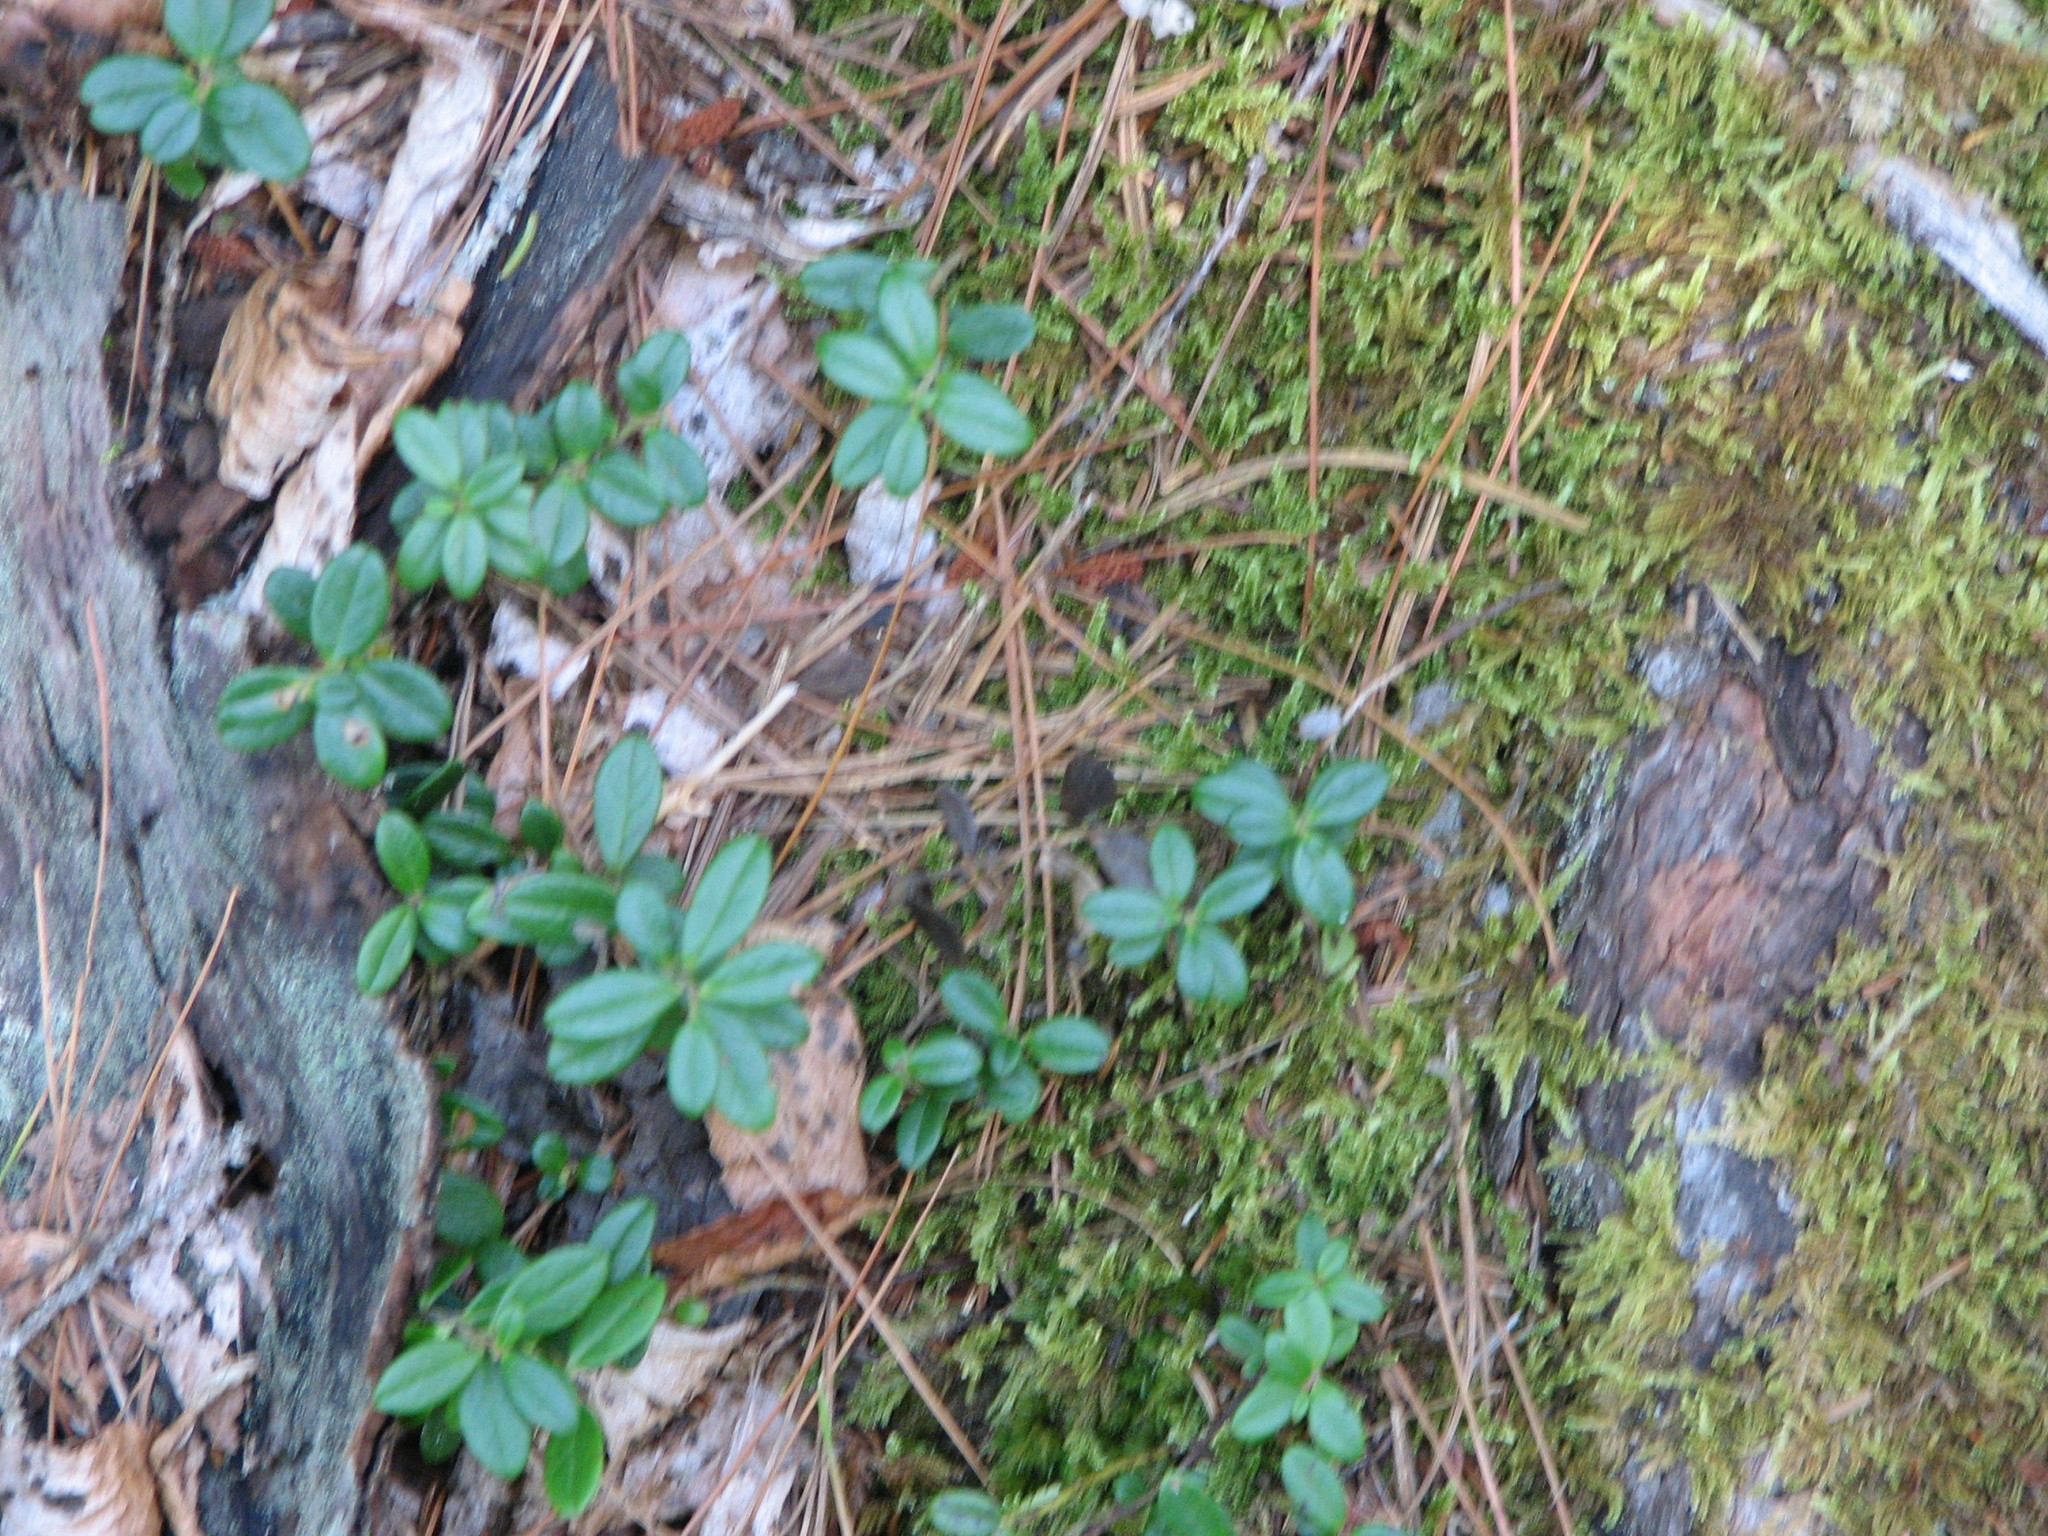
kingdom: Plantae
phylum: Tracheophyta
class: Magnoliopsida
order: Ericales
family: Ericaceae
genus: Vaccinium
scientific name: Vaccinium vitis-idaea
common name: Cowberry
